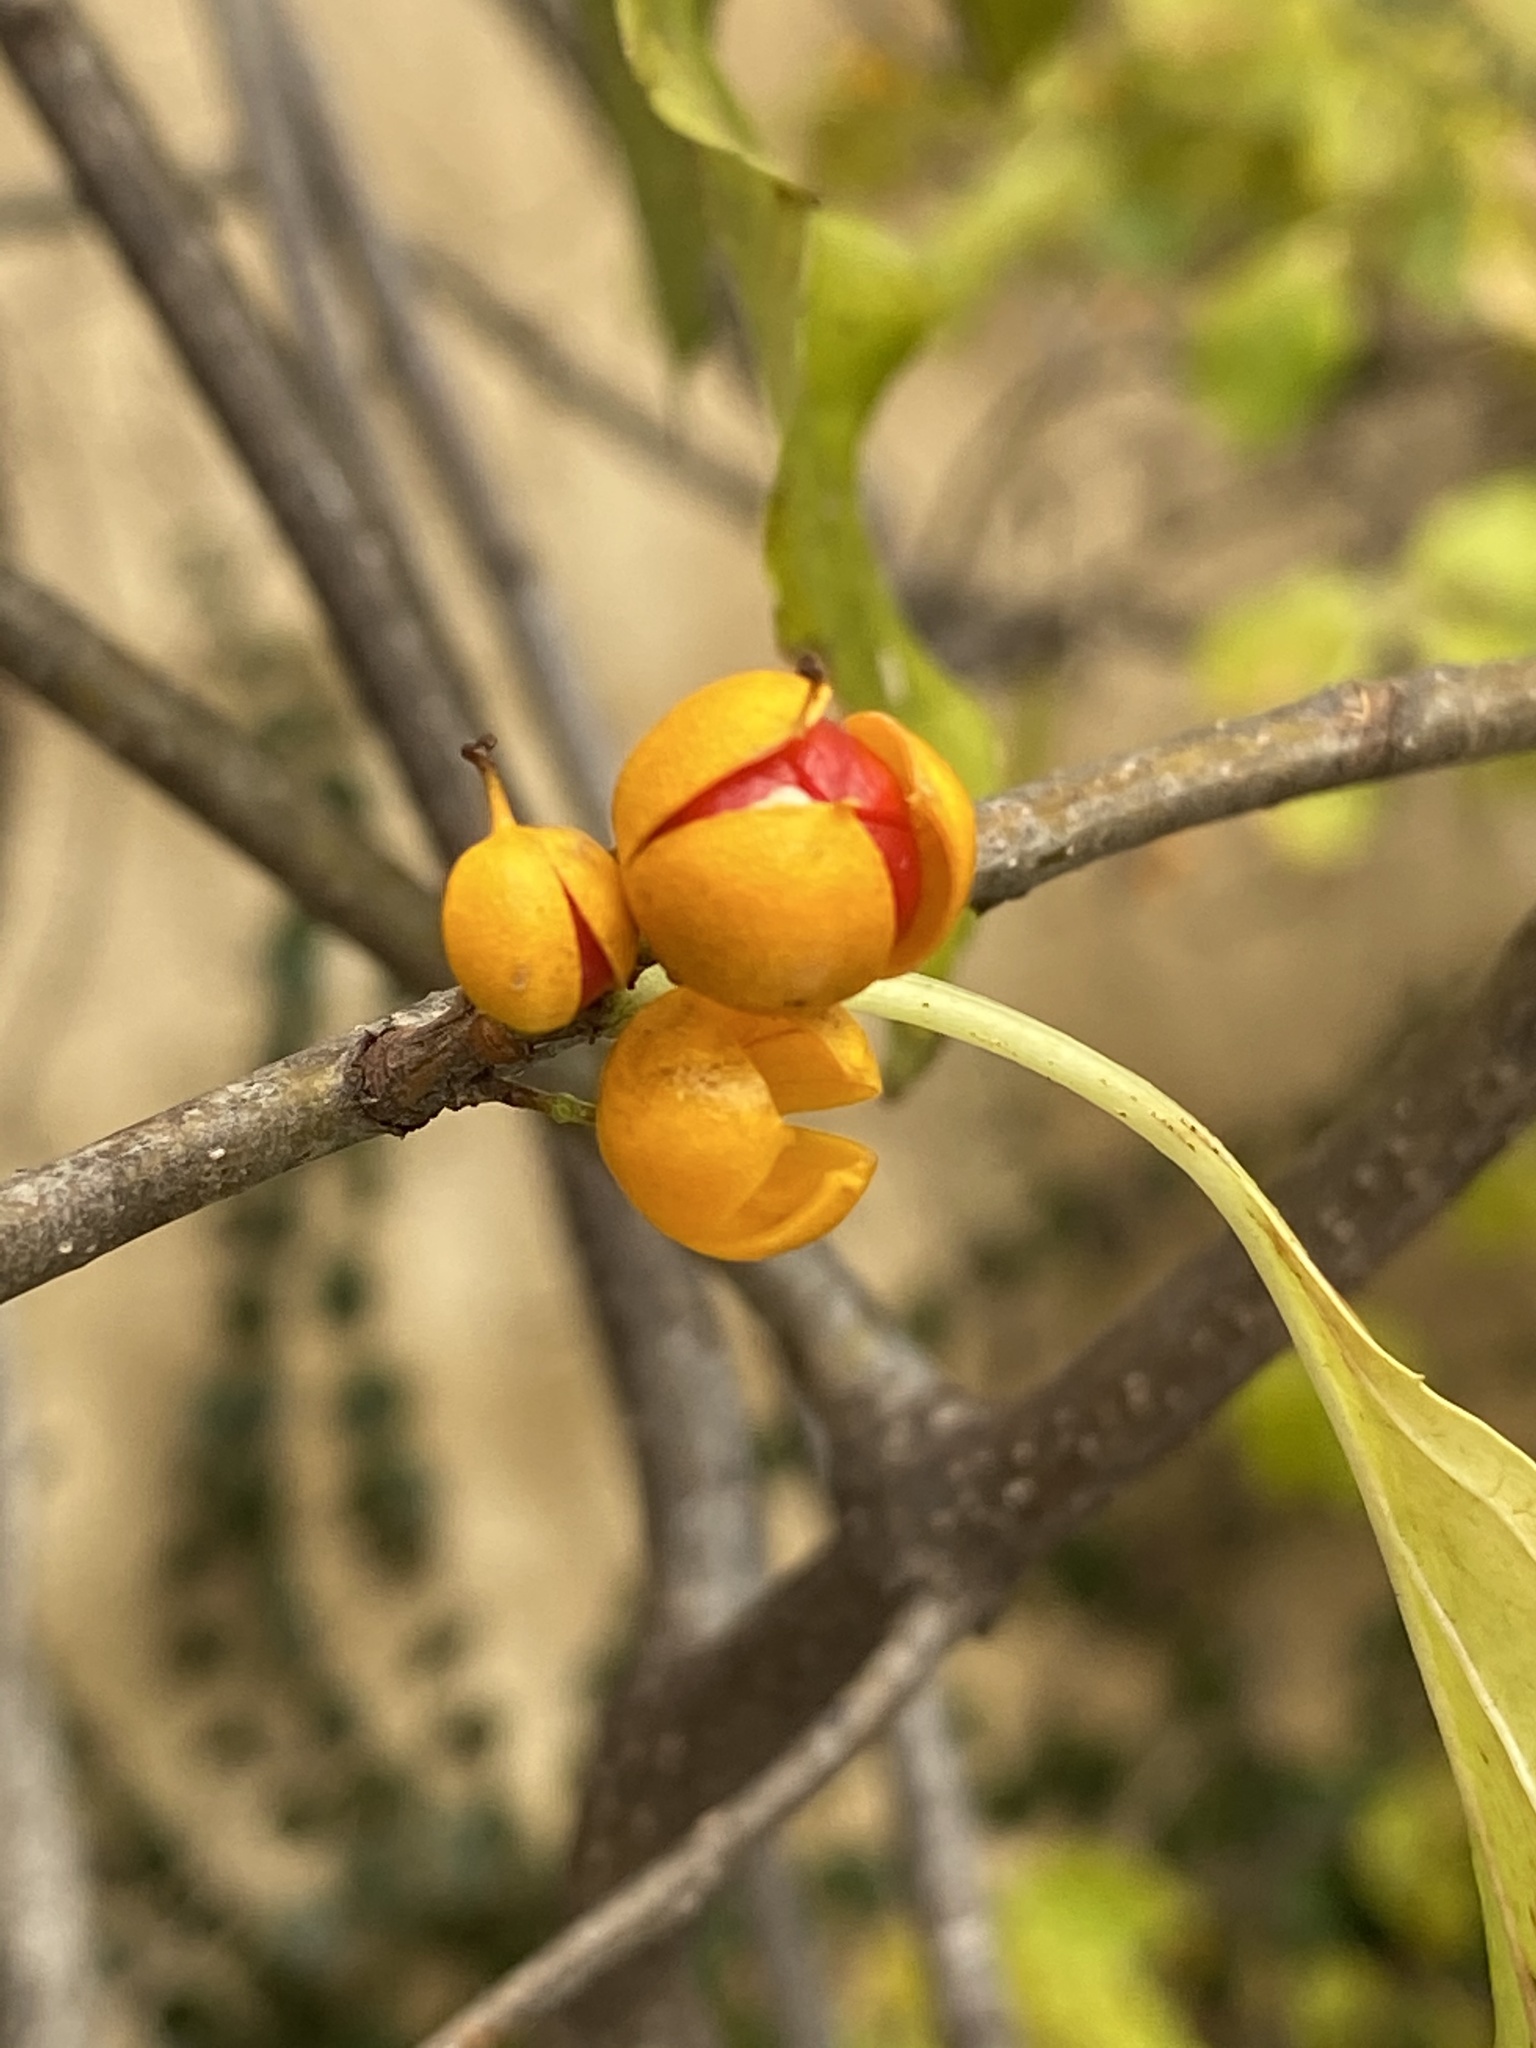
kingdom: Plantae
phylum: Tracheophyta
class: Magnoliopsida
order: Celastrales
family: Celastraceae
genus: Celastrus
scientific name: Celastrus orbiculatus
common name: Oriental bittersweet
